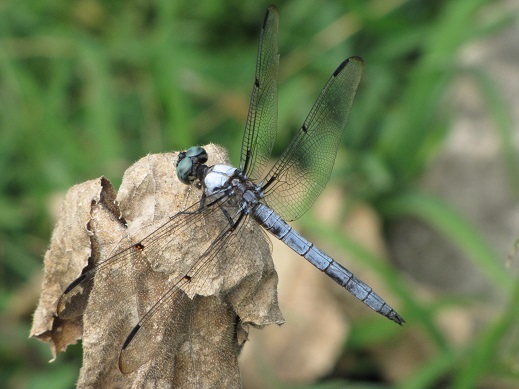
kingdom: Animalia
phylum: Arthropoda
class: Insecta
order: Odonata
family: Libellulidae
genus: Libellula
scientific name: Libellula vibrans
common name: Great blue skimmer
